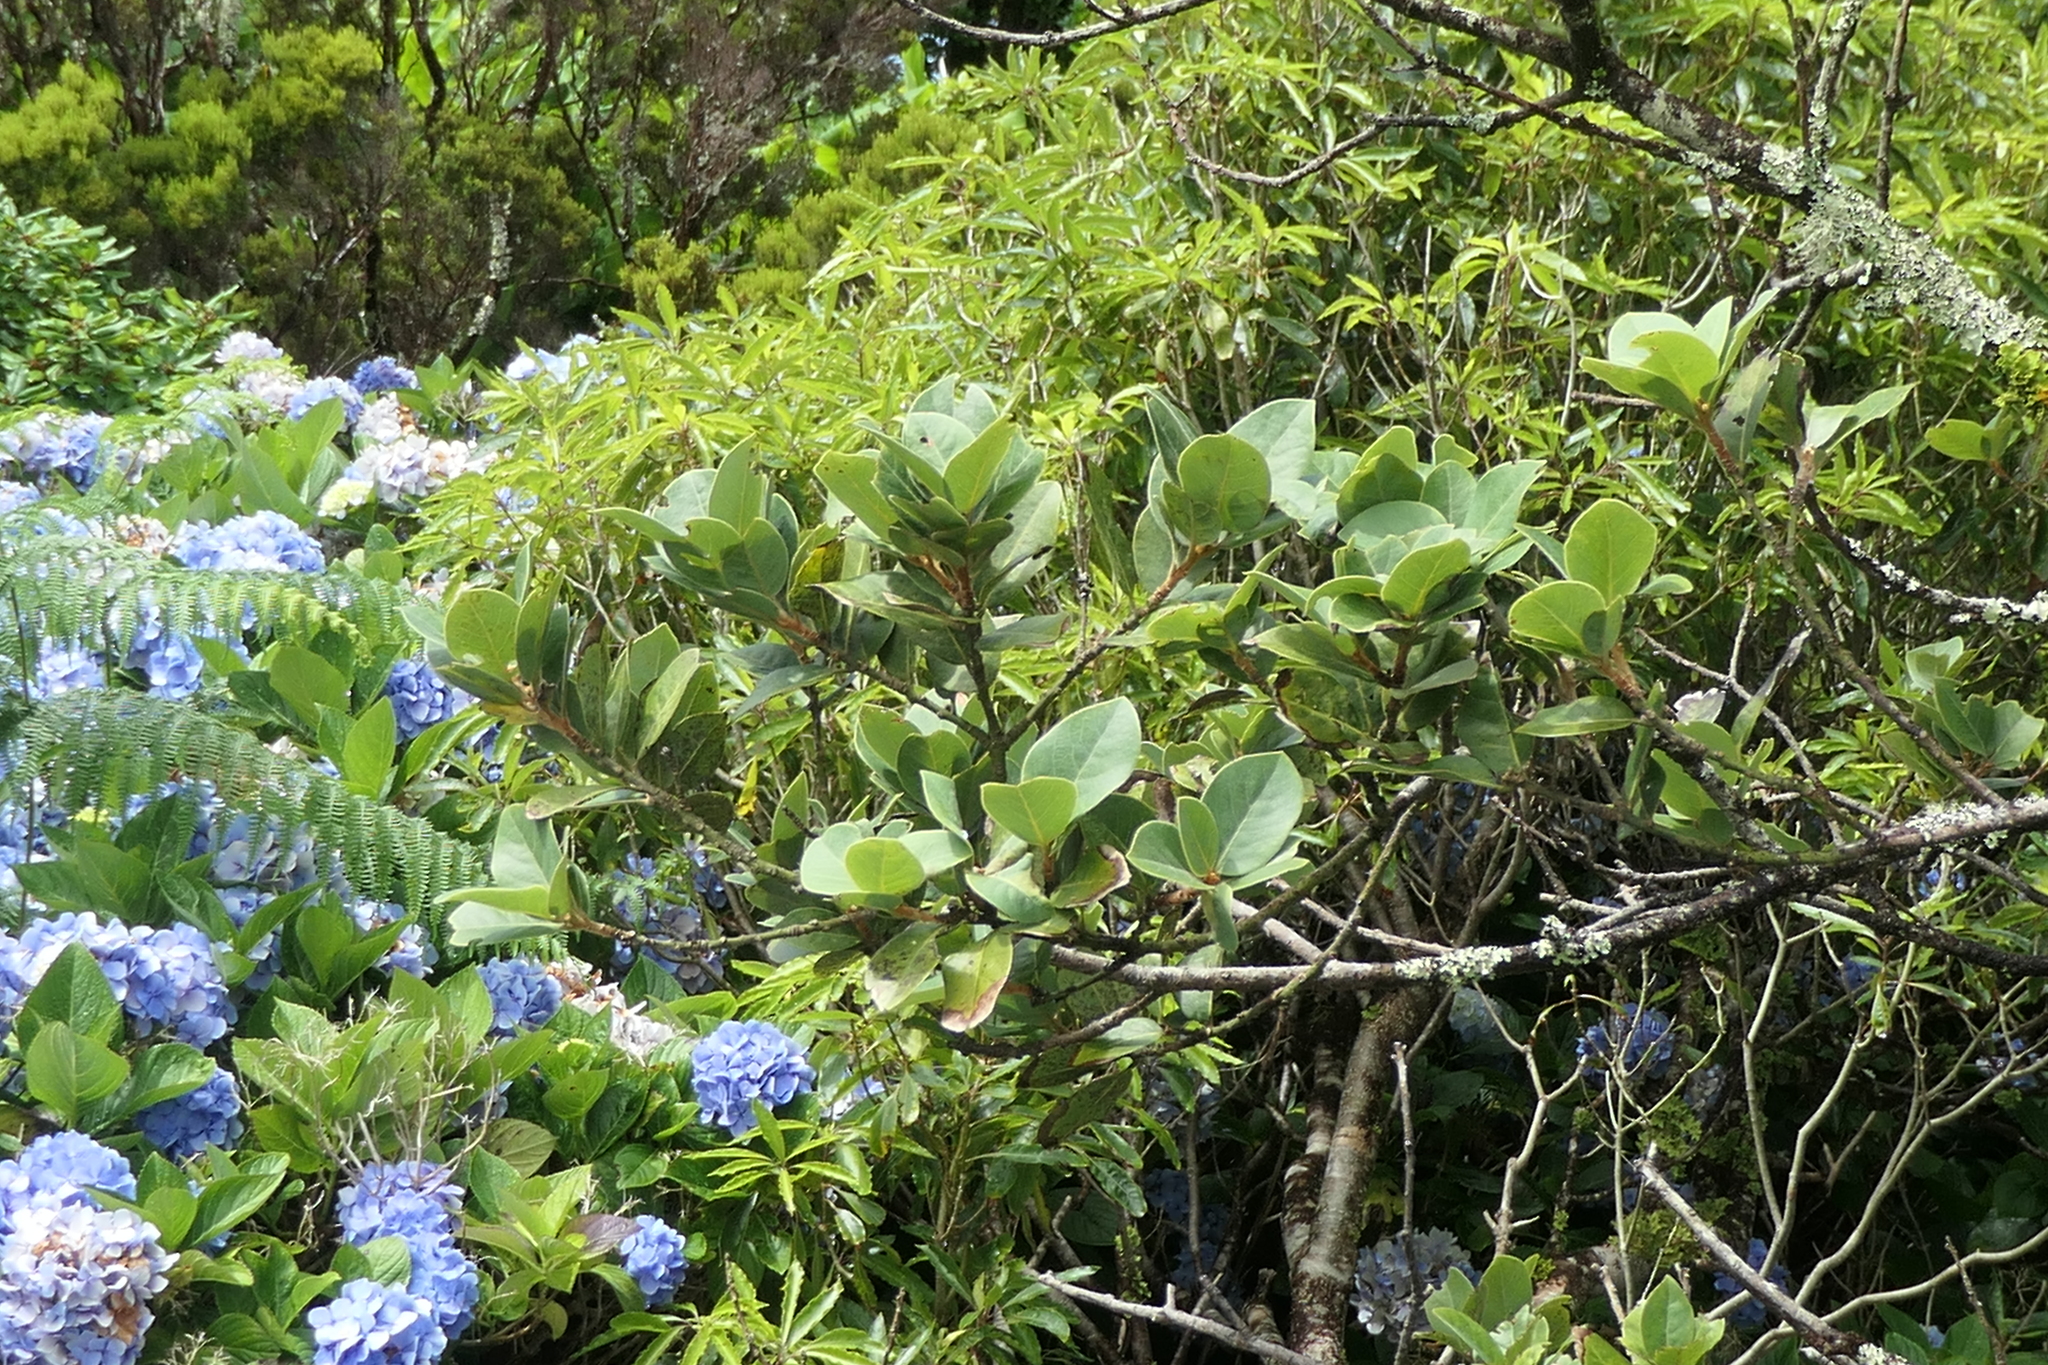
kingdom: Plantae
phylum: Tracheophyta
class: Magnoliopsida
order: Laurales
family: Lauraceae
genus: Laurus
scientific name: Laurus azorica
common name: Macaronesian laurel
